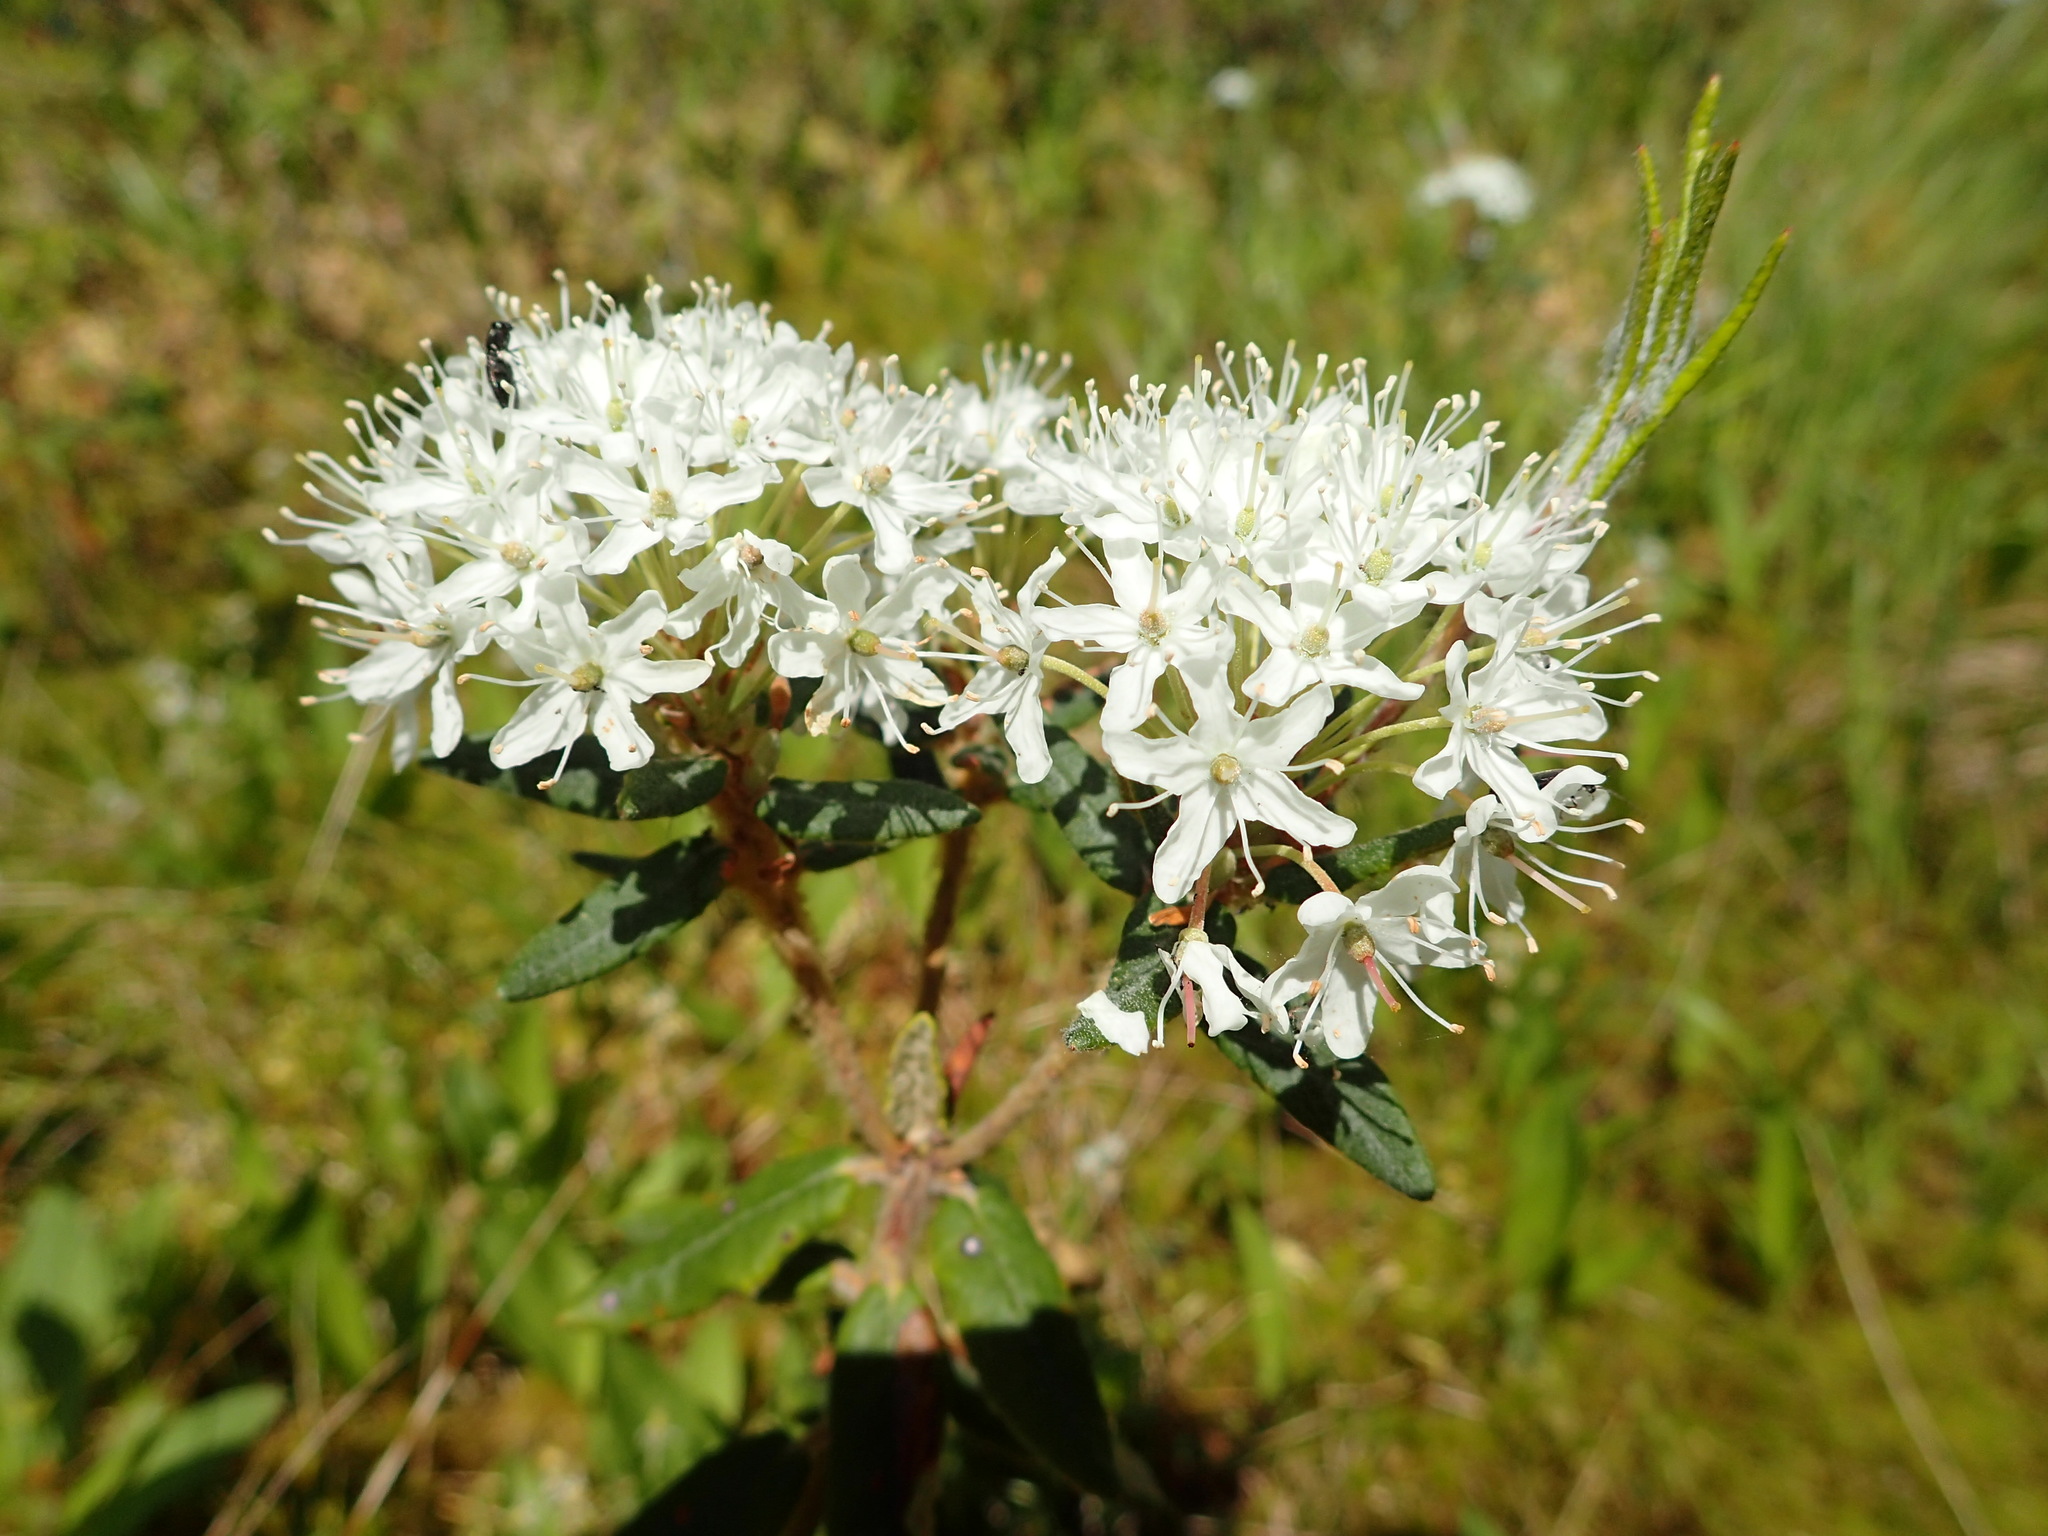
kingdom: Plantae
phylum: Tracheophyta
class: Magnoliopsida
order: Ericales
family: Ericaceae
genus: Rhododendron
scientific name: Rhododendron groenlandicum
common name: Bog labrador tea
